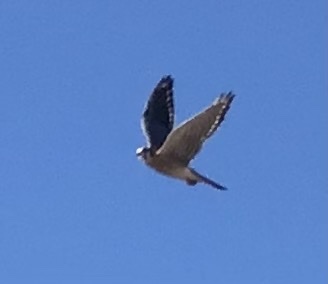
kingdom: Animalia
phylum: Chordata
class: Aves
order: Falconiformes
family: Falconidae
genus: Falco
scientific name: Falco sparverius
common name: American kestrel
